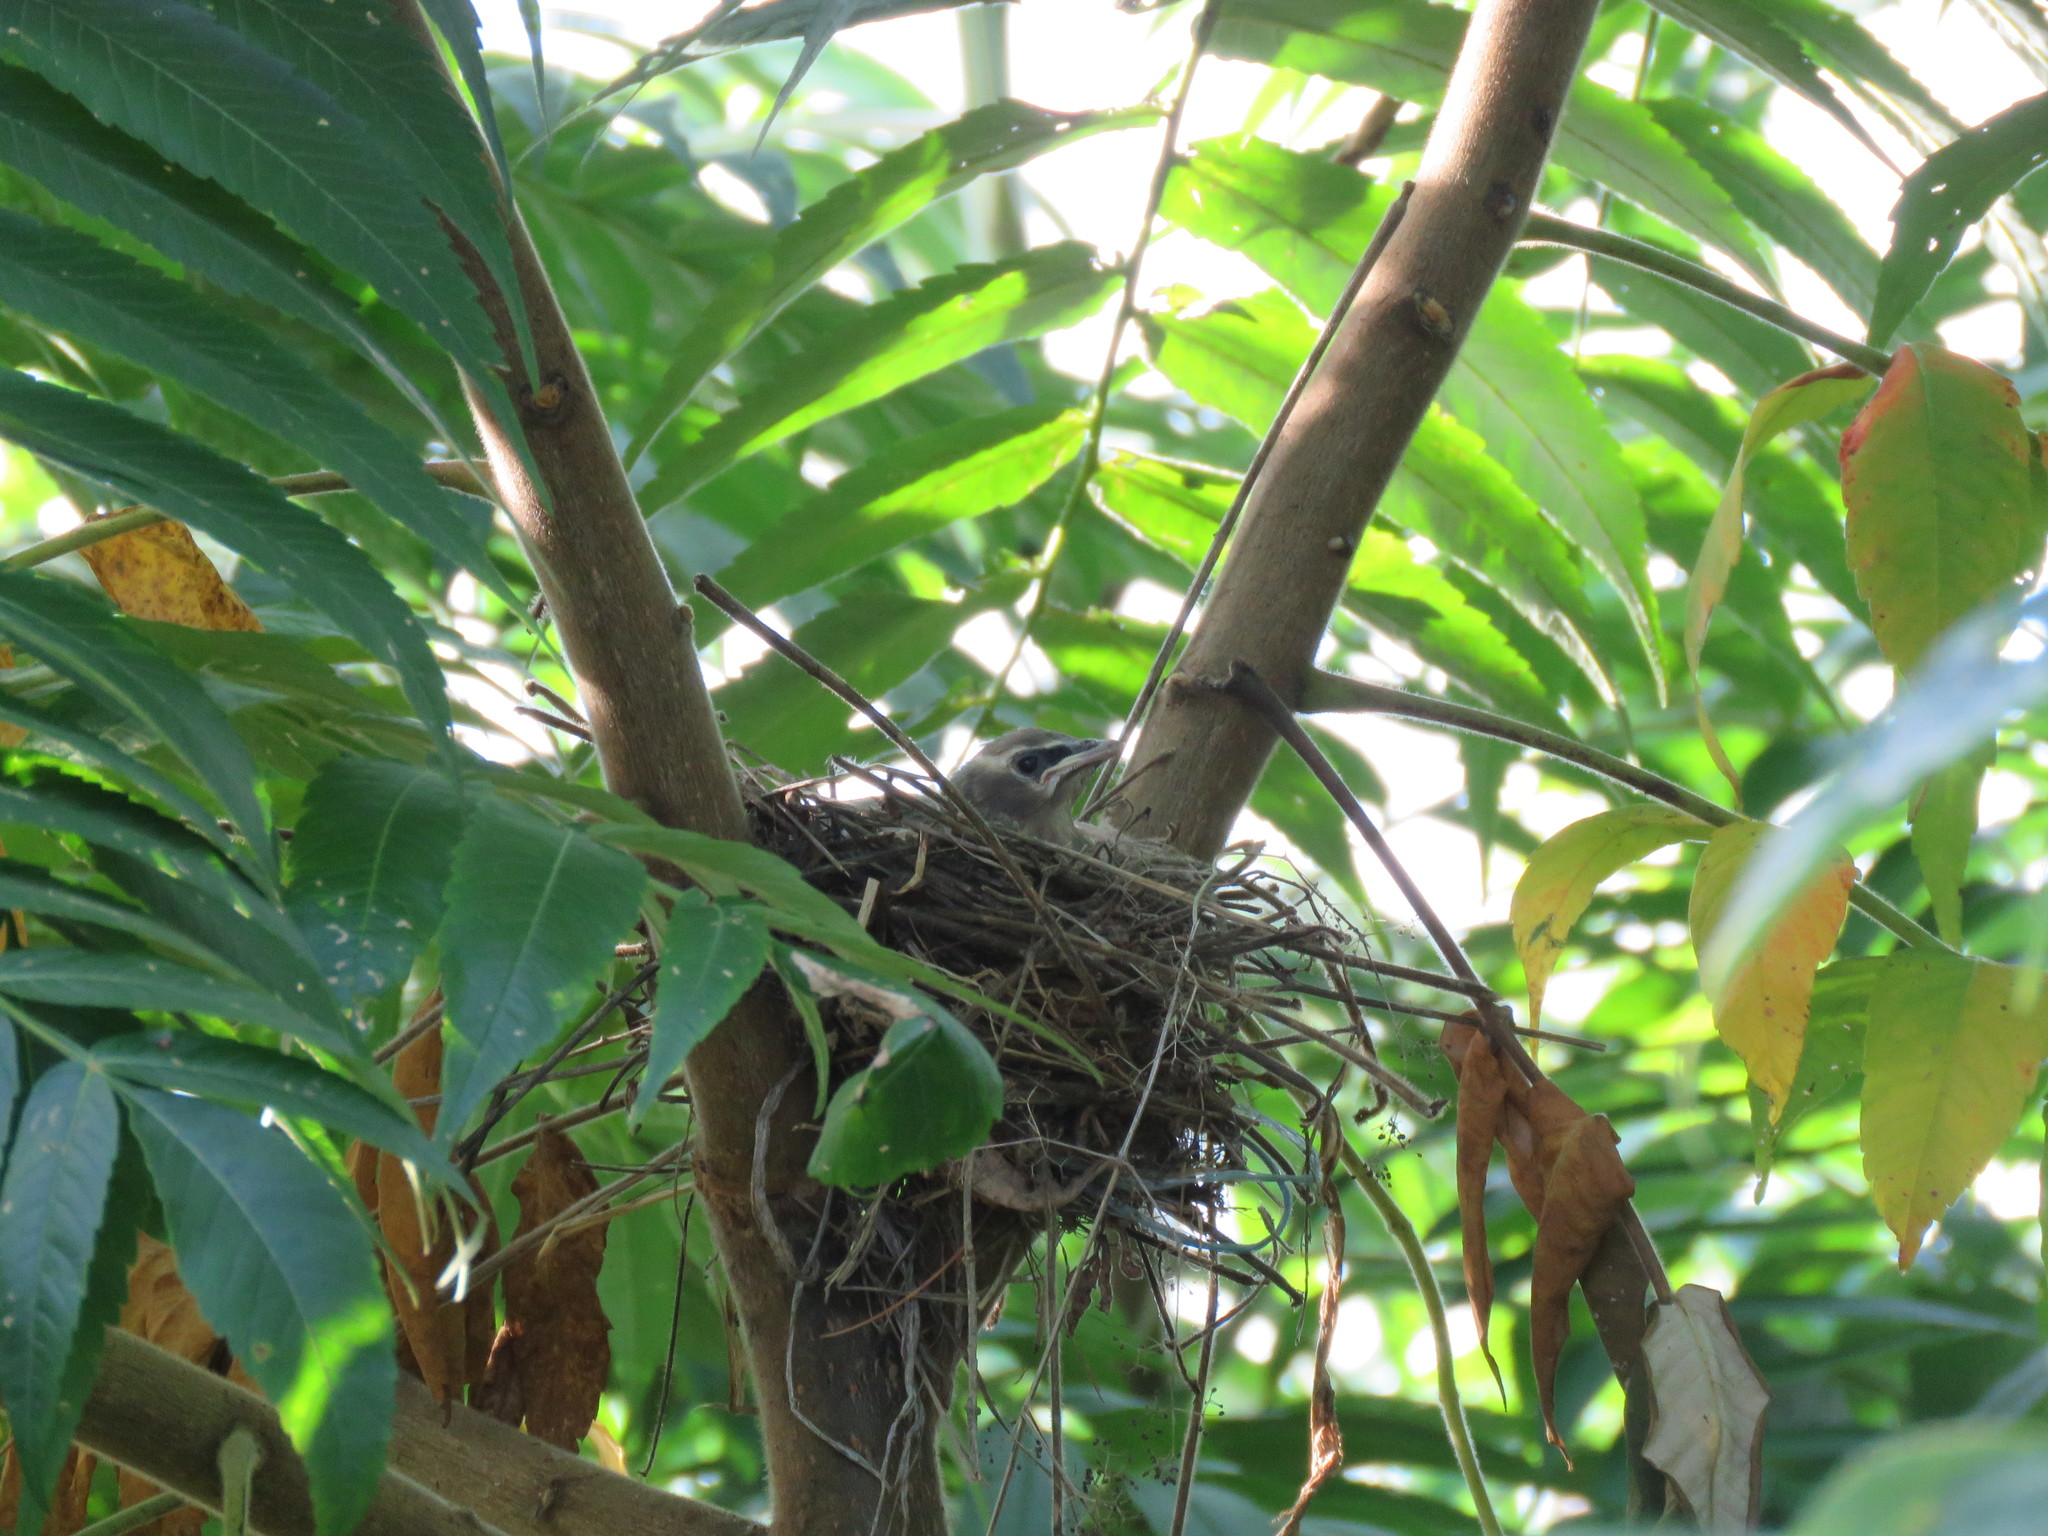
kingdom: Animalia
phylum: Chordata
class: Aves
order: Passeriformes
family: Bombycillidae
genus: Bombycilla
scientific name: Bombycilla cedrorum
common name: Cedar waxwing
